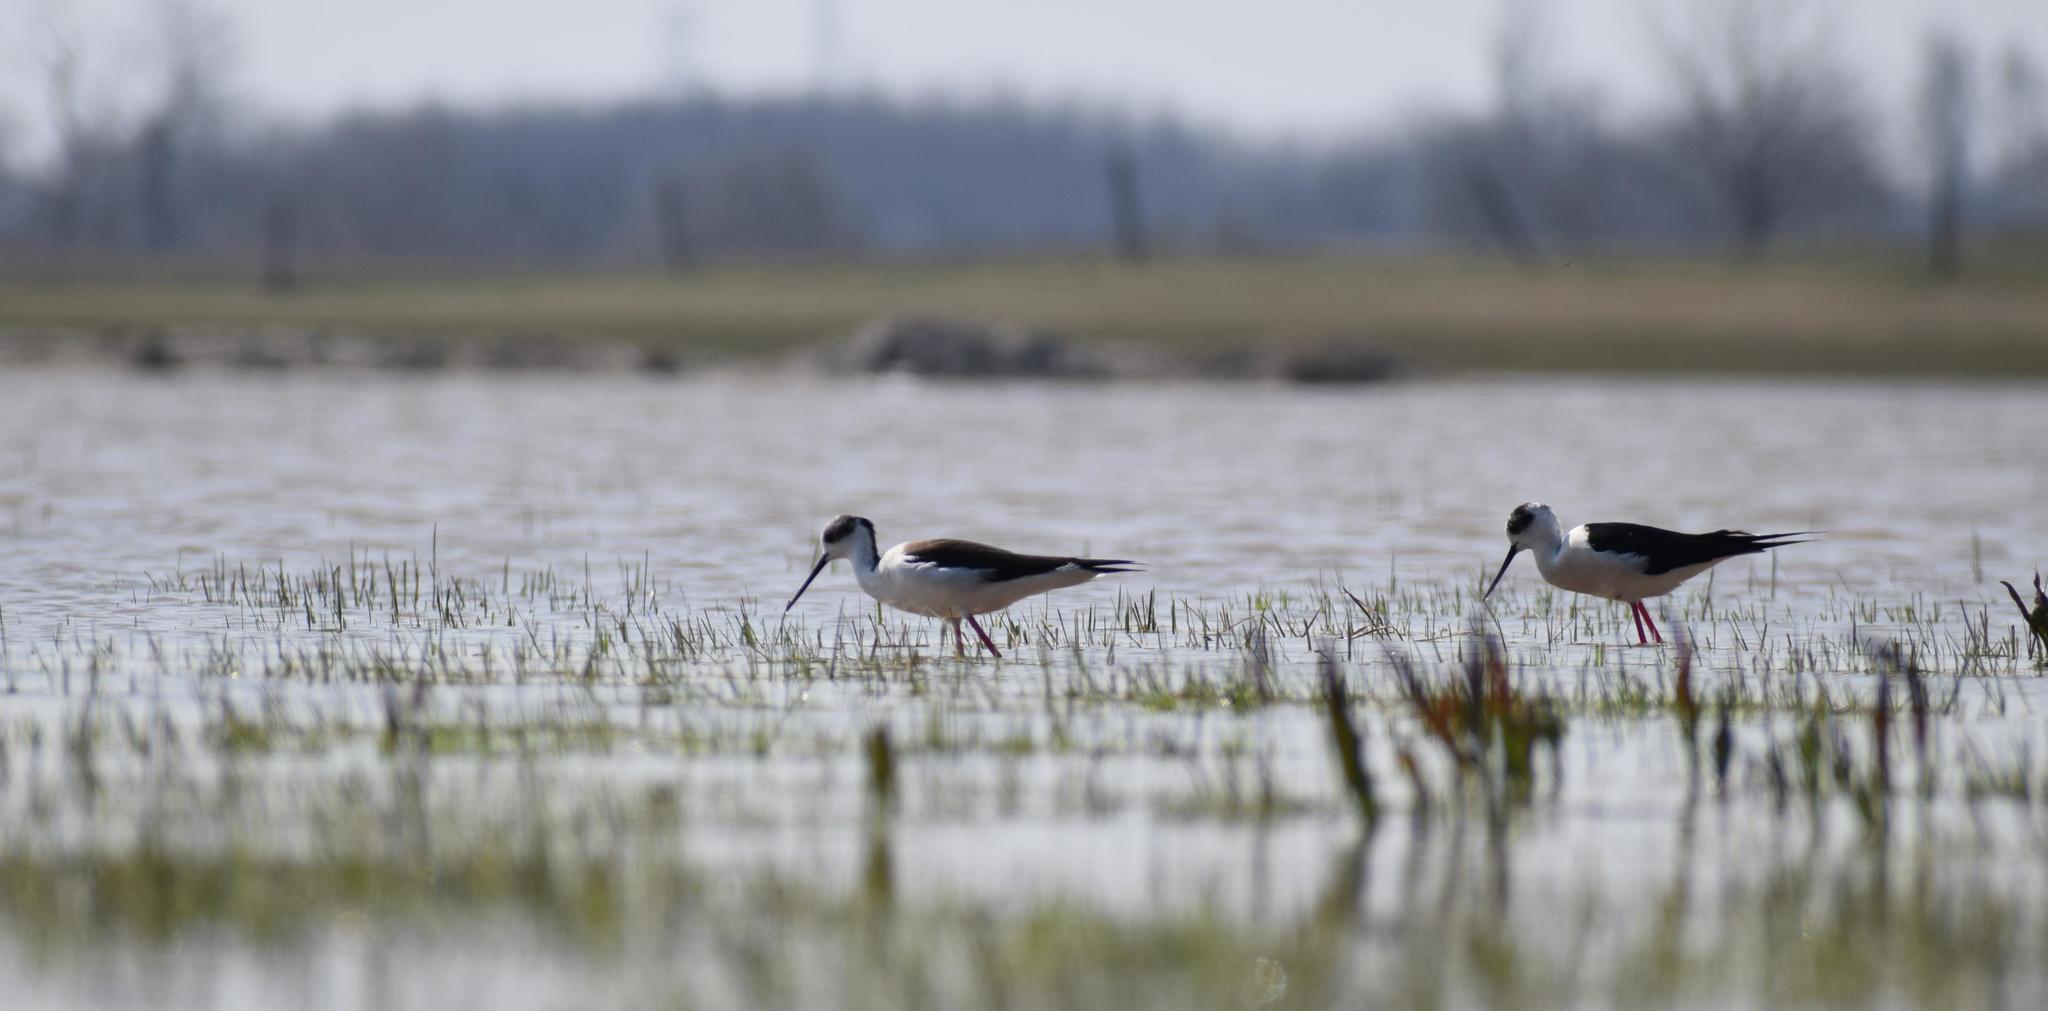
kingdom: Animalia
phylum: Chordata
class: Aves
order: Charadriiformes
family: Recurvirostridae
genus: Himantopus
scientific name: Himantopus himantopus
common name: Black-winged stilt
